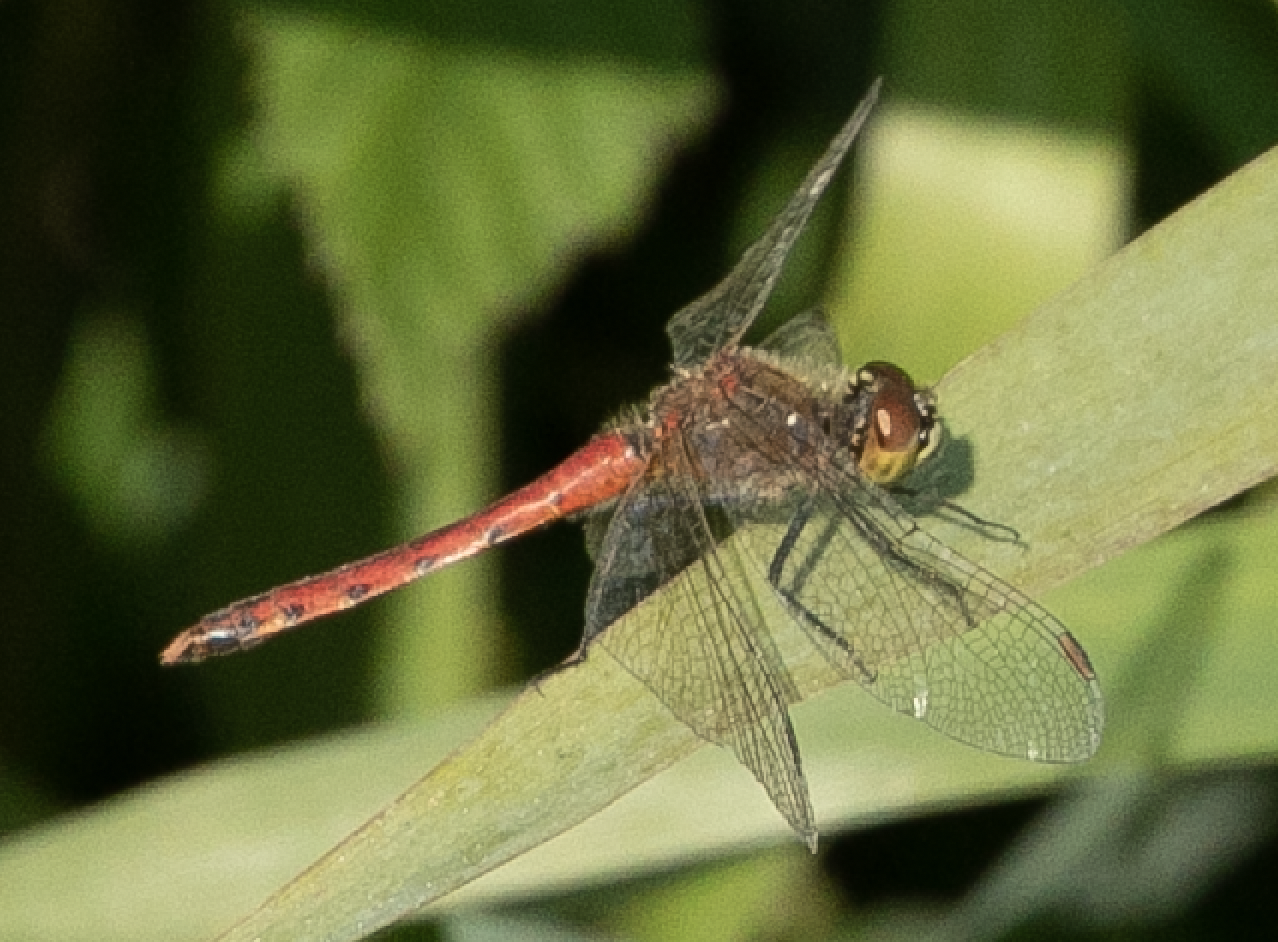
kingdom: Animalia
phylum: Arthropoda
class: Insecta
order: Odonata
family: Libellulidae
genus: Sympetrum
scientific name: Sympetrum depressiusculum
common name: Spotted darter
